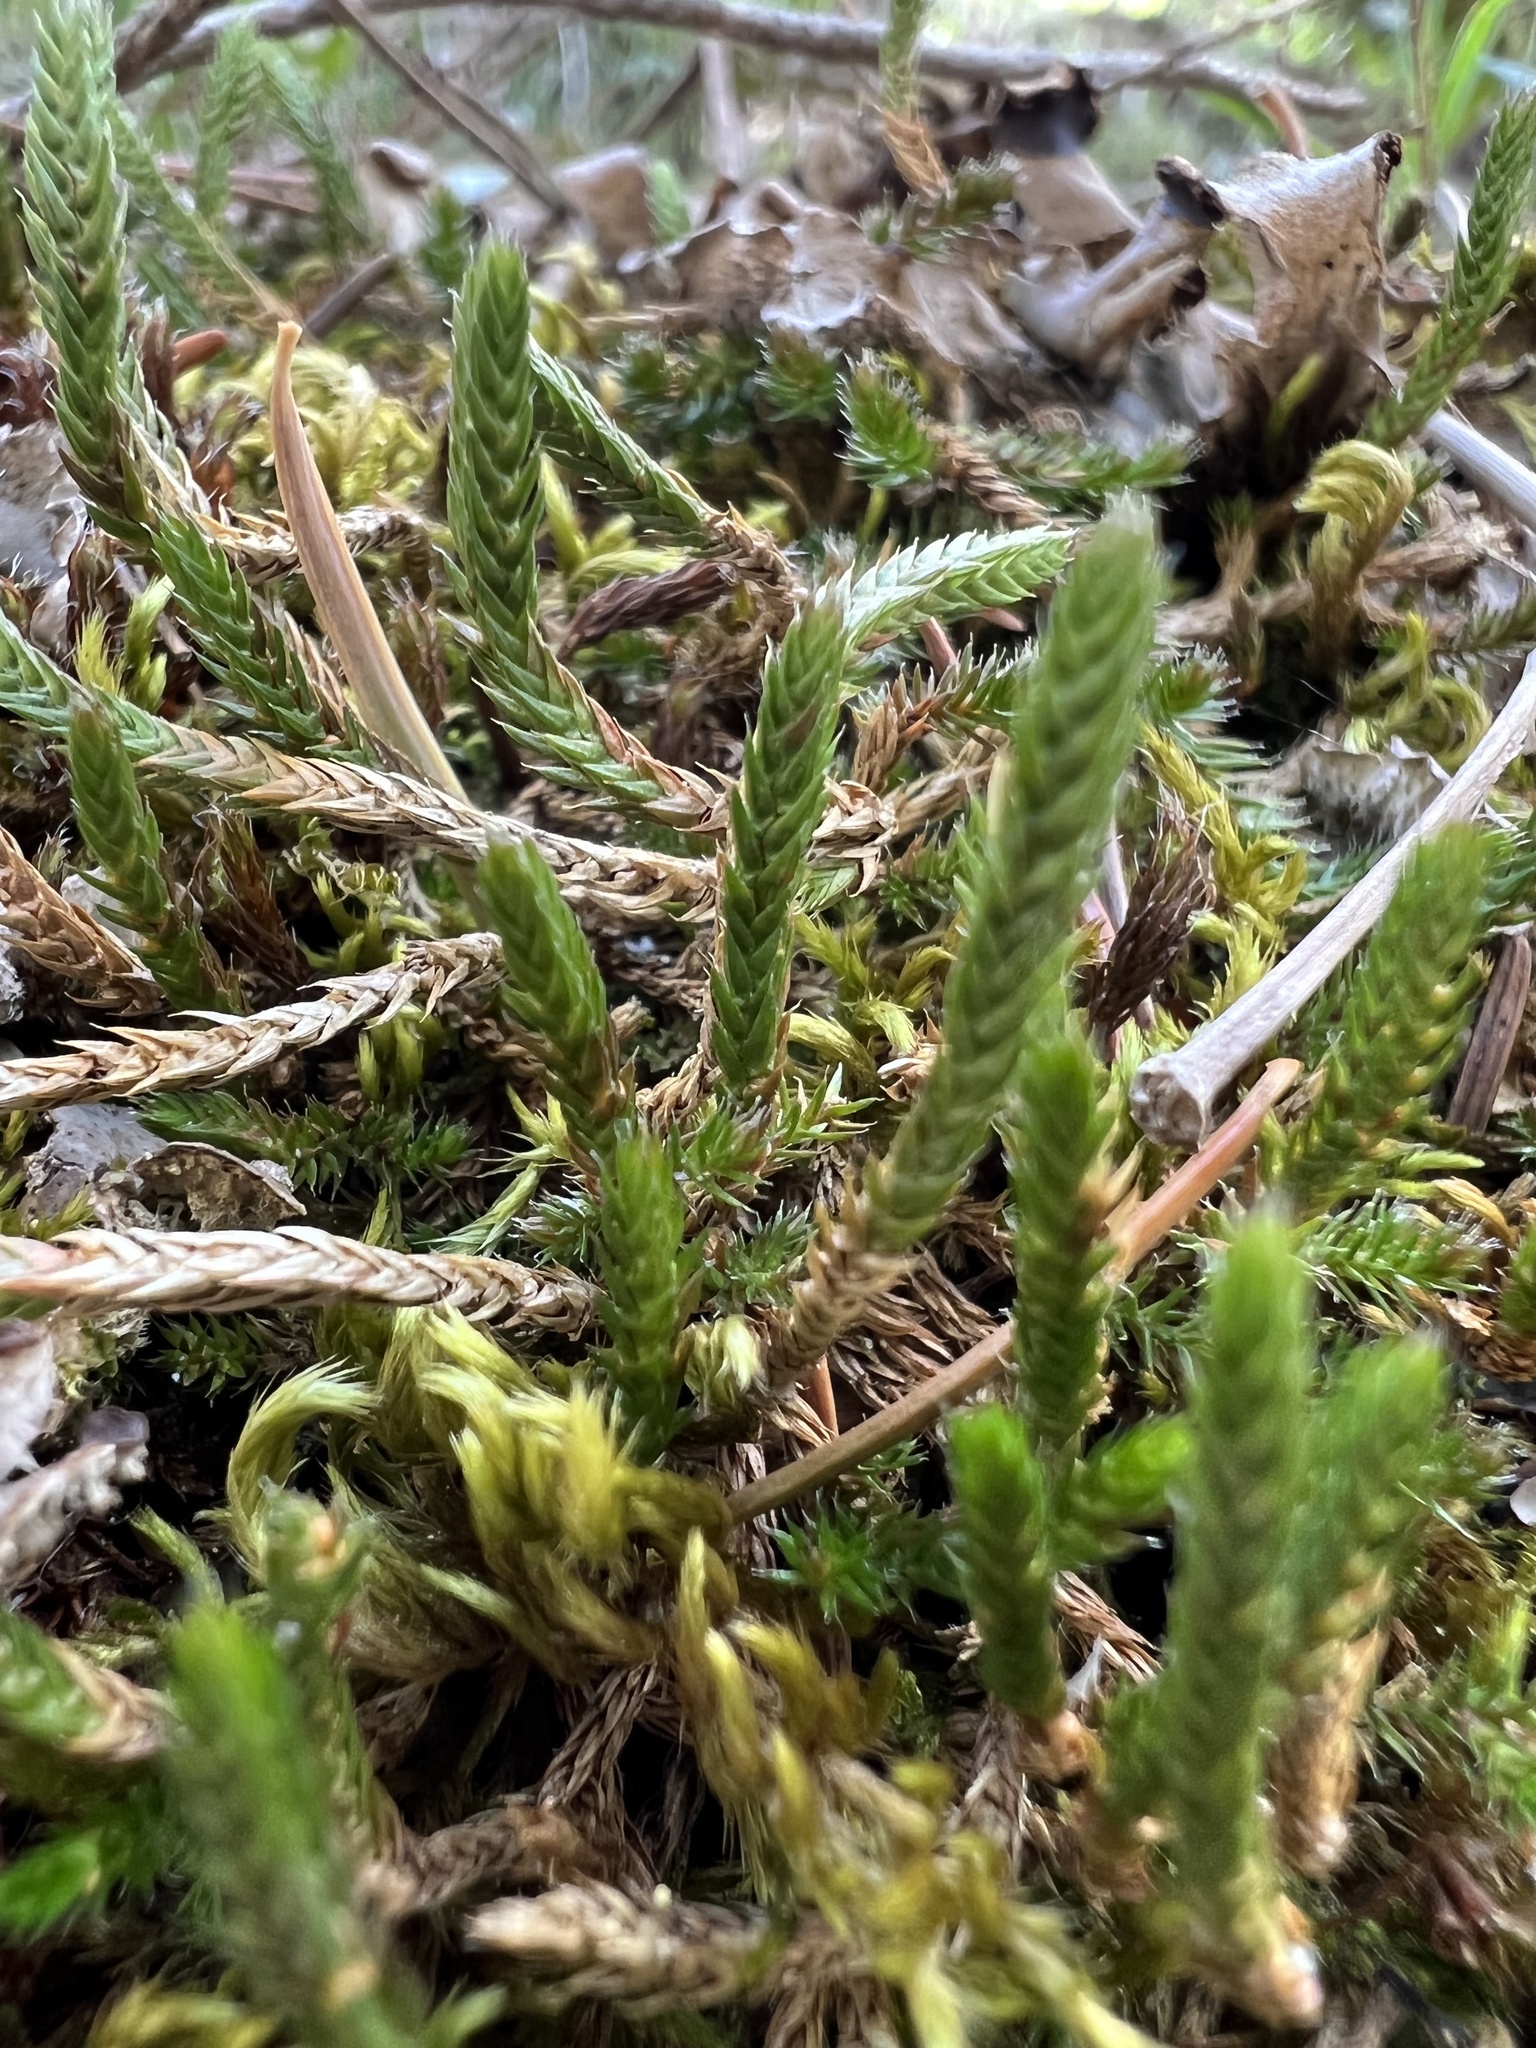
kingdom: Plantae
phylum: Tracheophyta
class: Lycopodiopsida
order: Selaginellales
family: Selaginellaceae
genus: Selaginella
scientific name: Selaginella densa
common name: Mountain spike-moss
